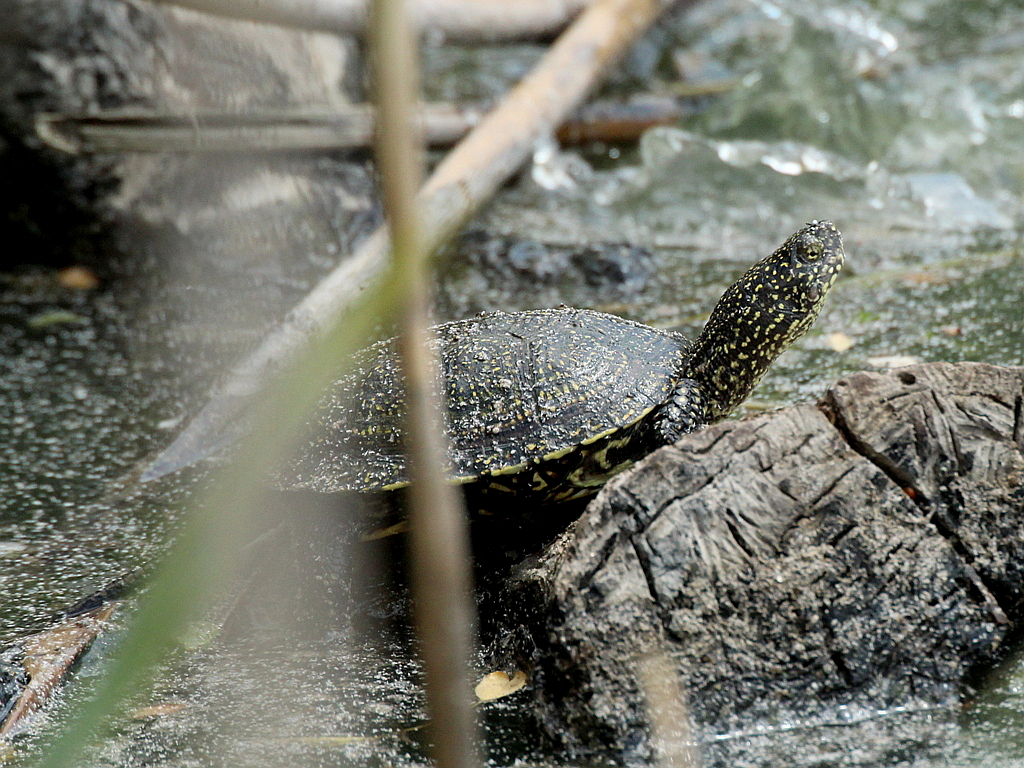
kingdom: Animalia
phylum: Chordata
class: Testudines
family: Emydidae
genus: Emys
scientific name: Emys orbicularis
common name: European pond turtle
